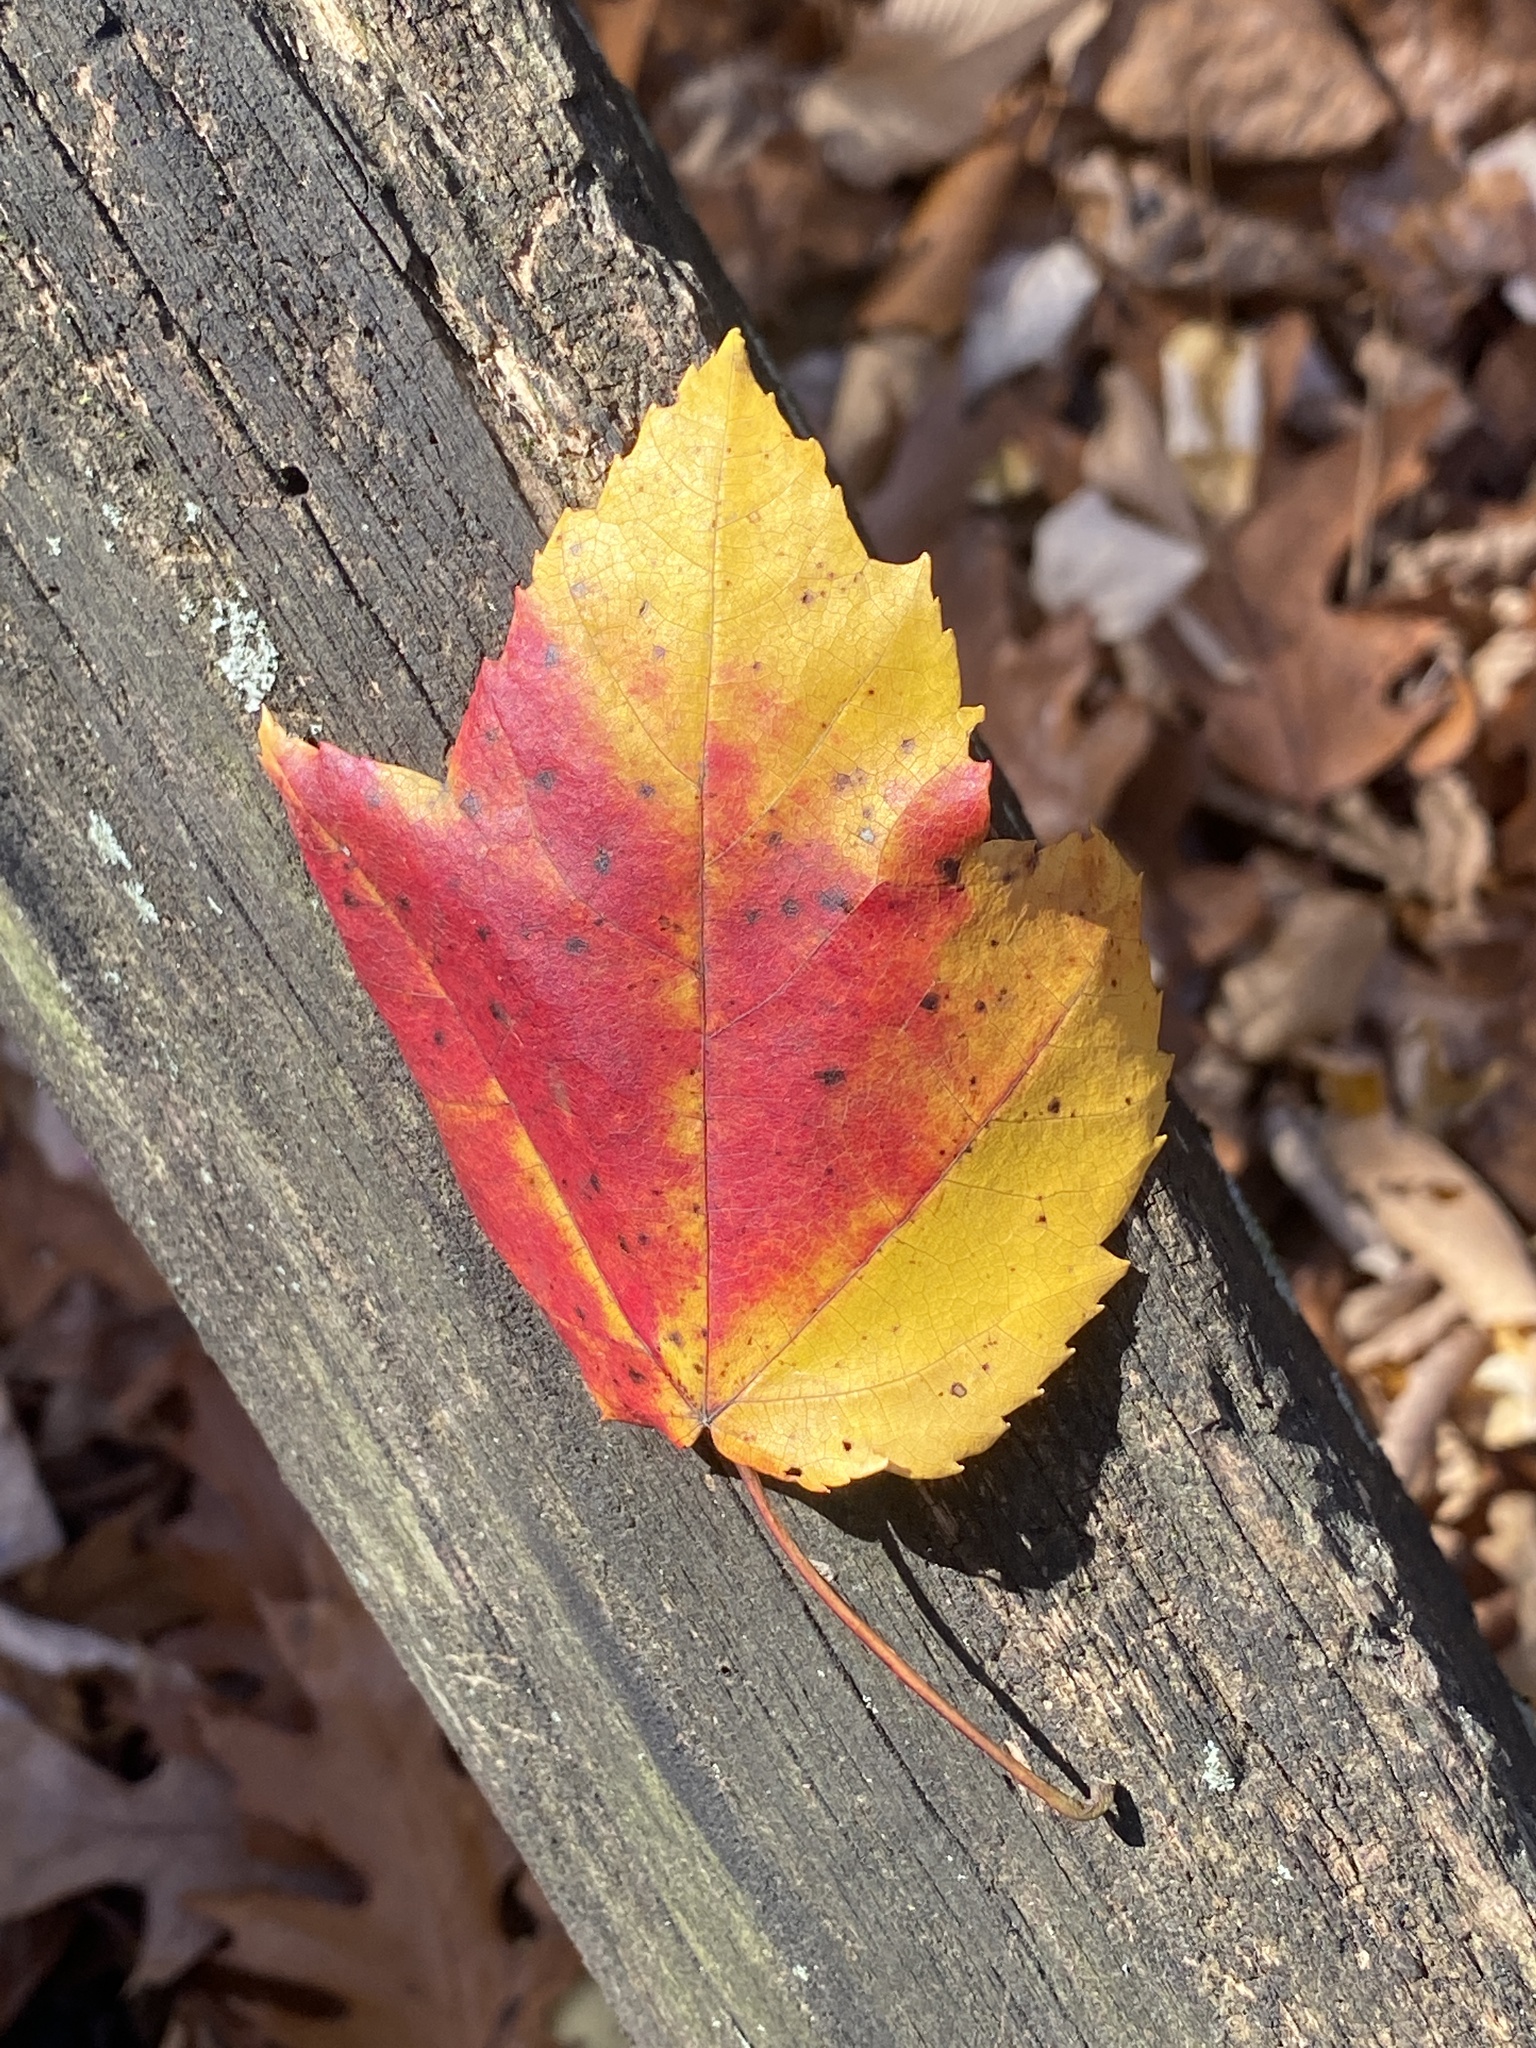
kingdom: Plantae
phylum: Tracheophyta
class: Magnoliopsida
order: Sapindales
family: Sapindaceae
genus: Acer
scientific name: Acer rubrum
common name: Red maple
